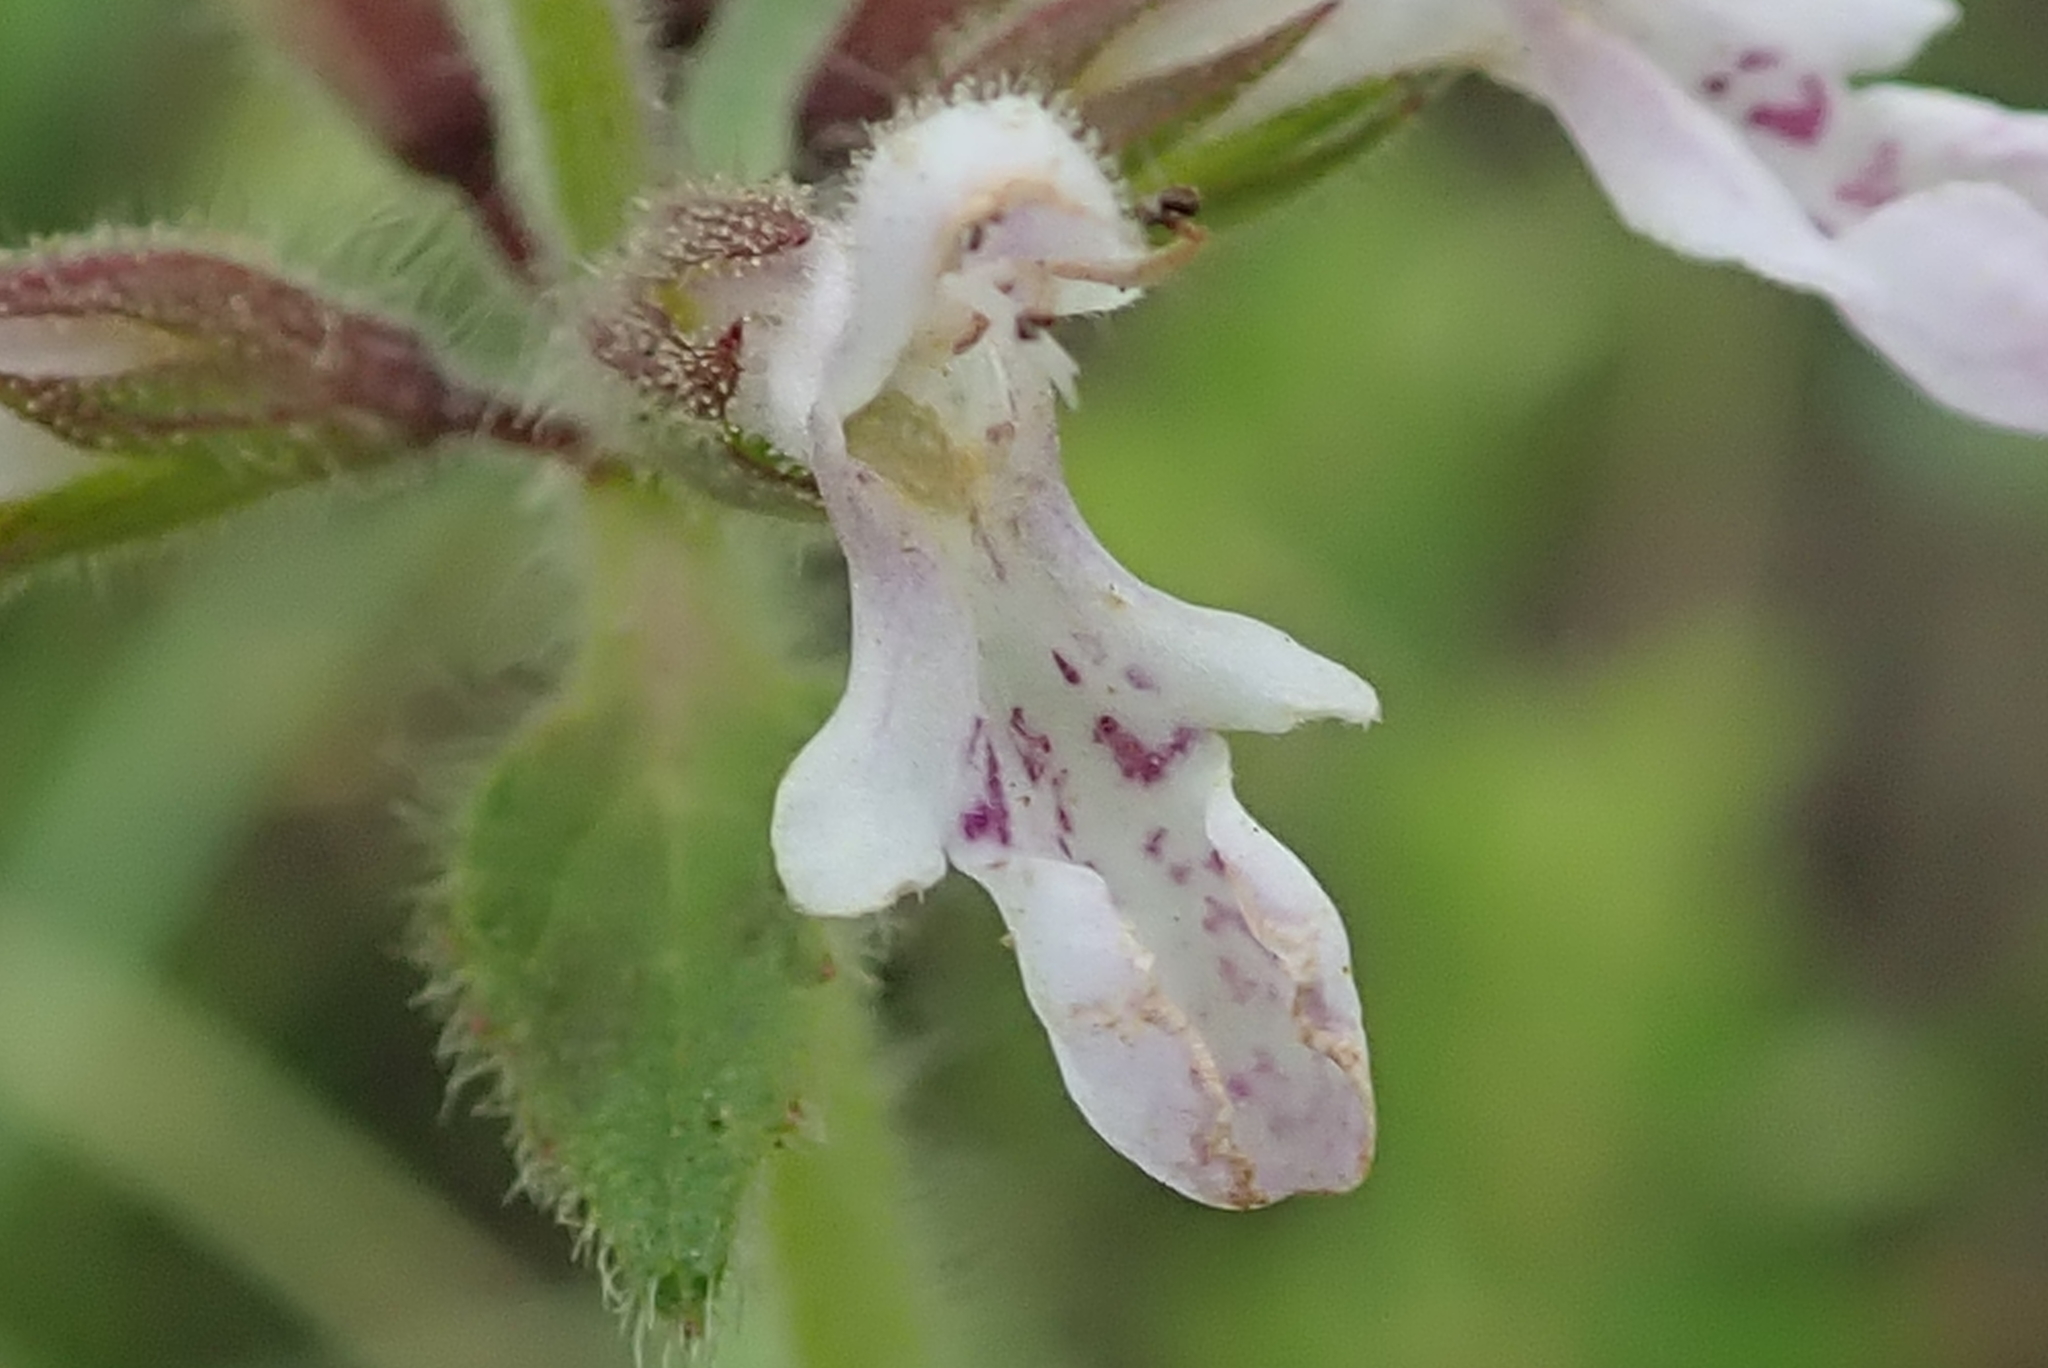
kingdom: Plantae
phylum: Tracheophyta
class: Magnoliopsida
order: Lamiales
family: Lamiaceae
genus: Stachys
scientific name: Stachys aethiopica
